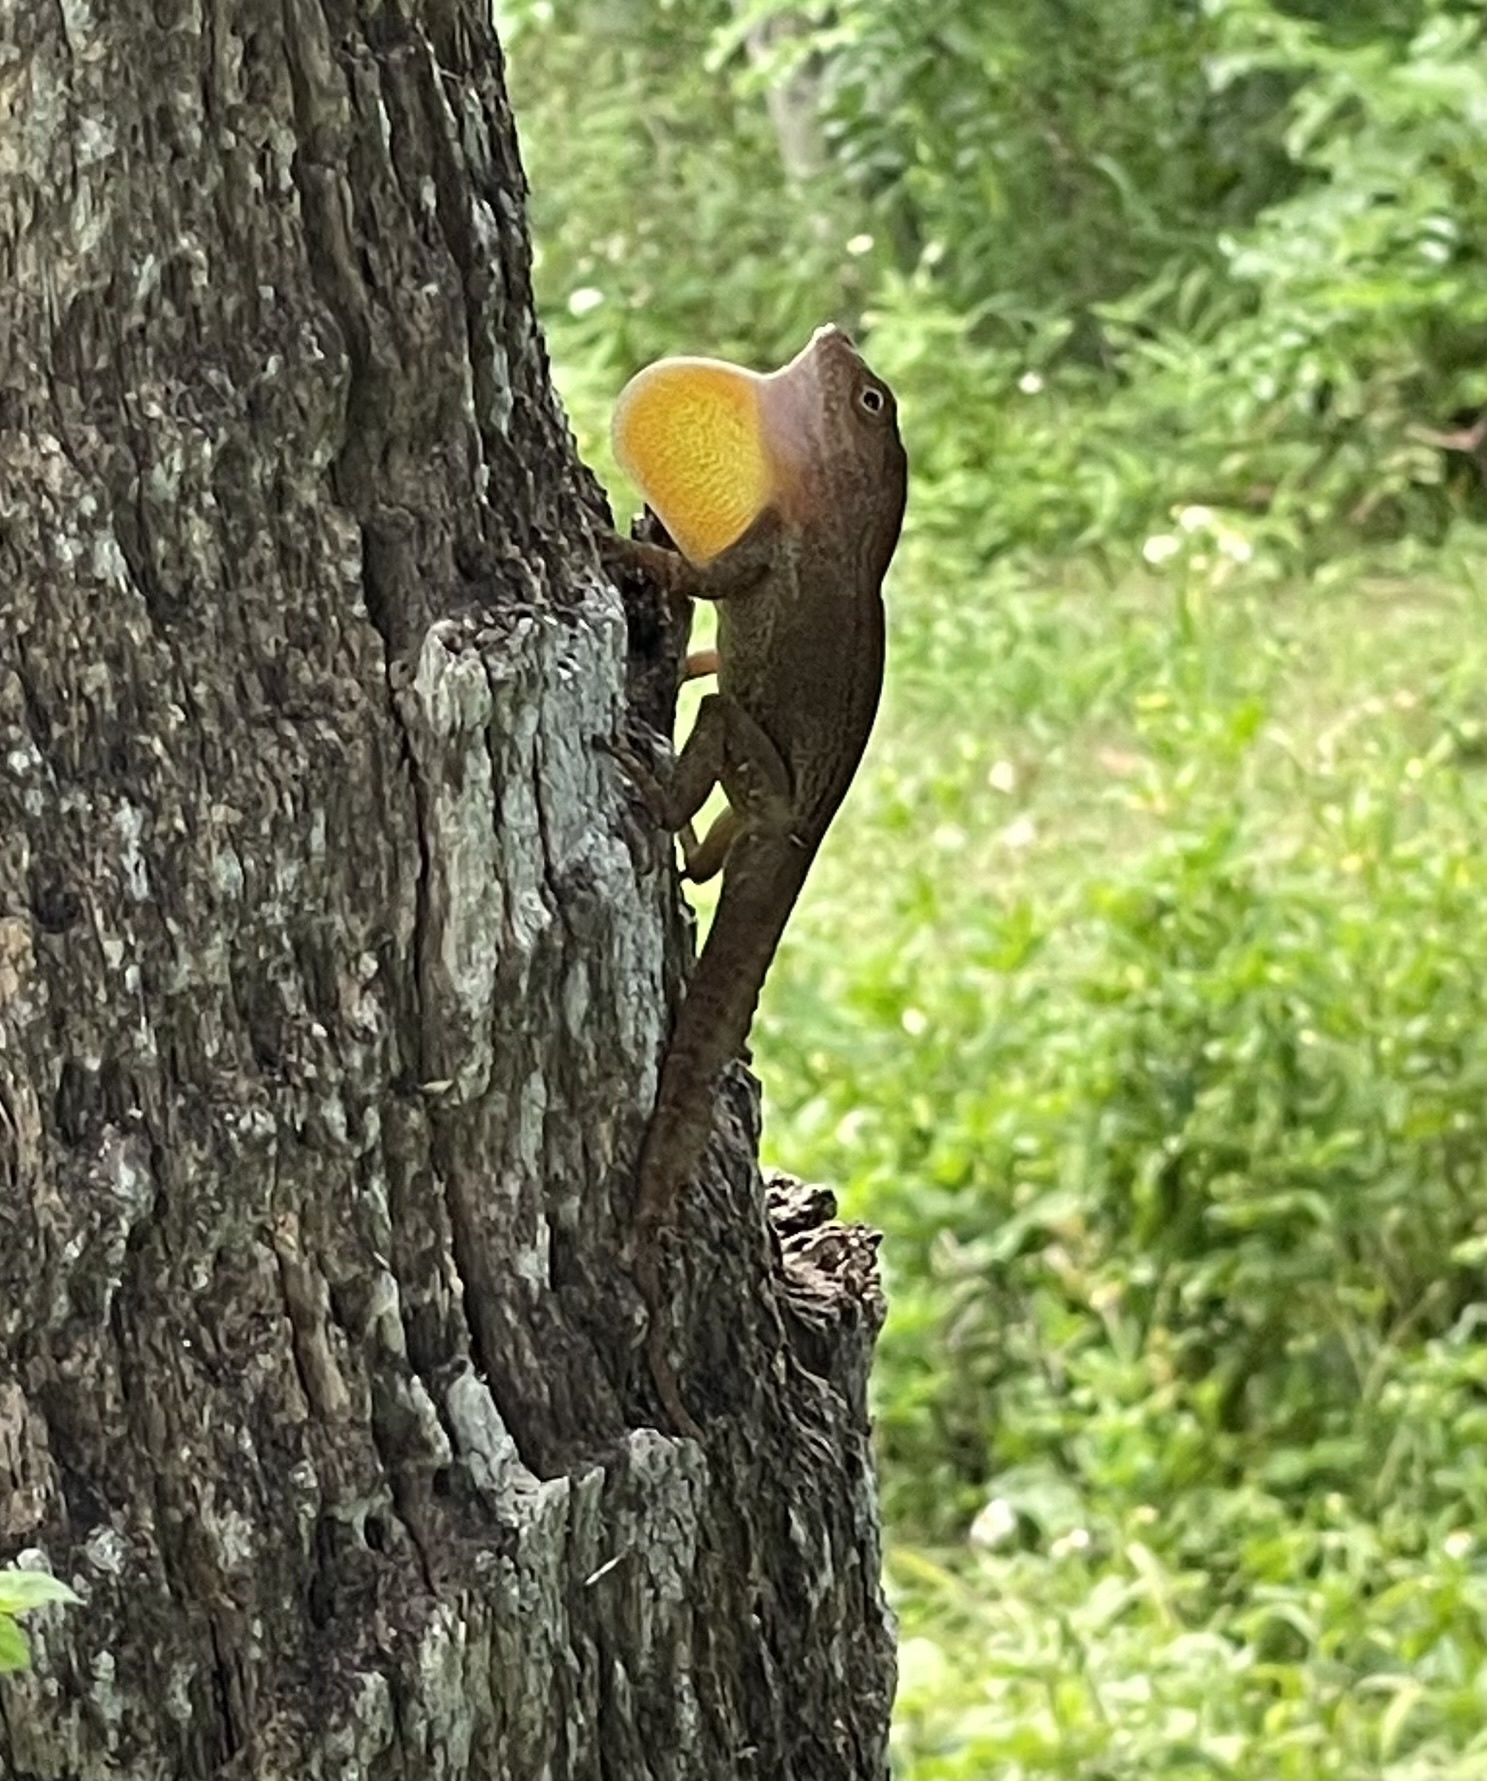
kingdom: Animalia
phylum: Chordata
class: Squamata
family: Dactyloidae
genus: Anolis
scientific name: Anolis cristatellus
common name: Crested anole
